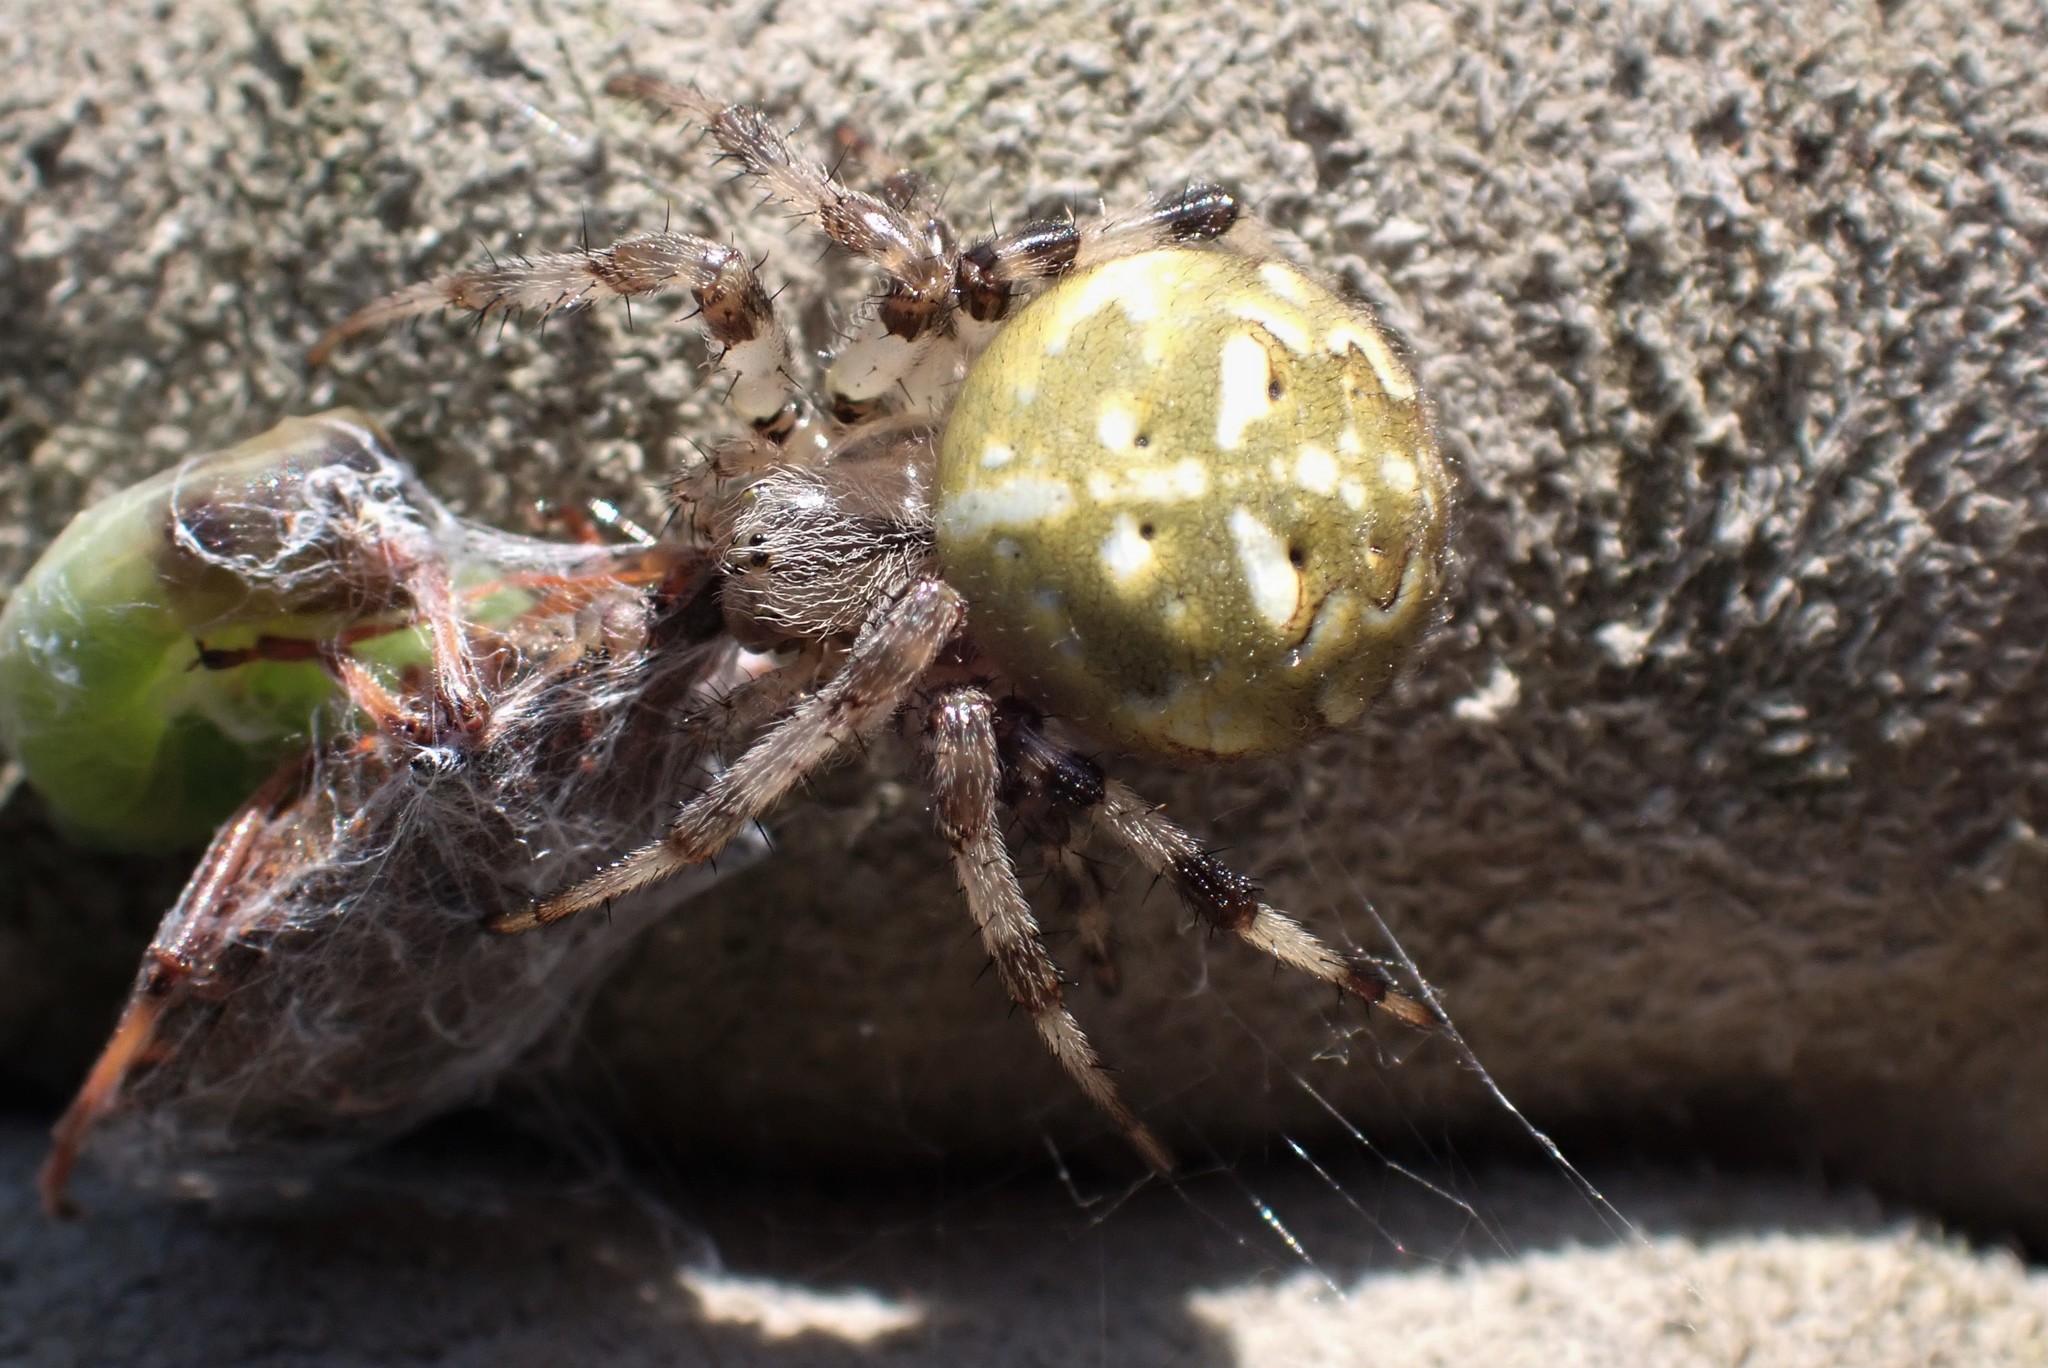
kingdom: Animalia
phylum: Arthropoda
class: Arachnida
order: Araneae
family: Araneidae
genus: Araneus
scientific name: Araneus quadratus
